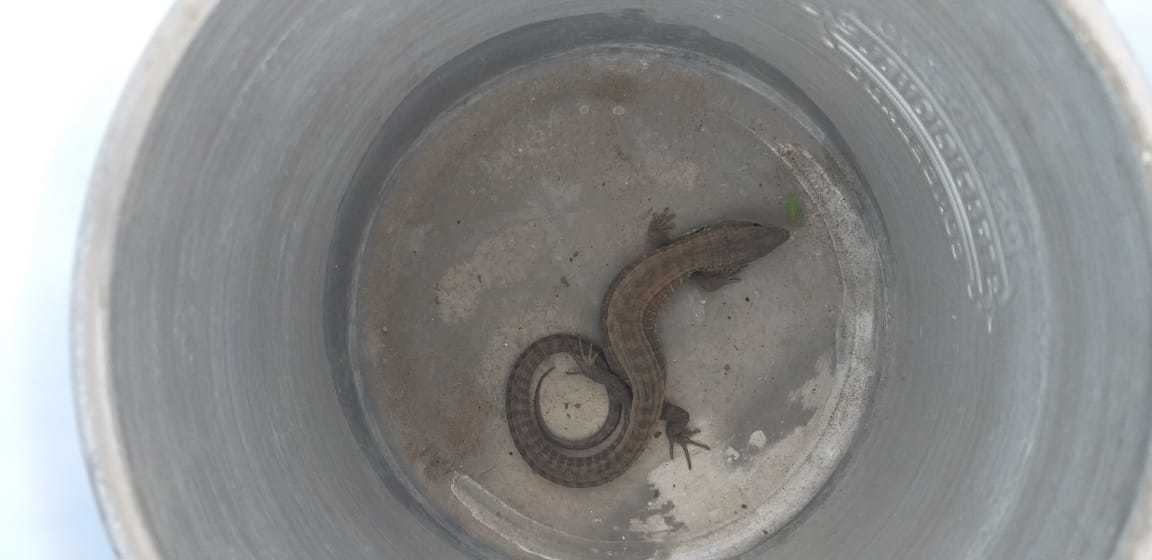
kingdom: Animalia
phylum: Chordata
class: Squamata
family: Anguidae
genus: Barisia
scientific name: Barisia imbricata
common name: Imbricate alligator lizard
